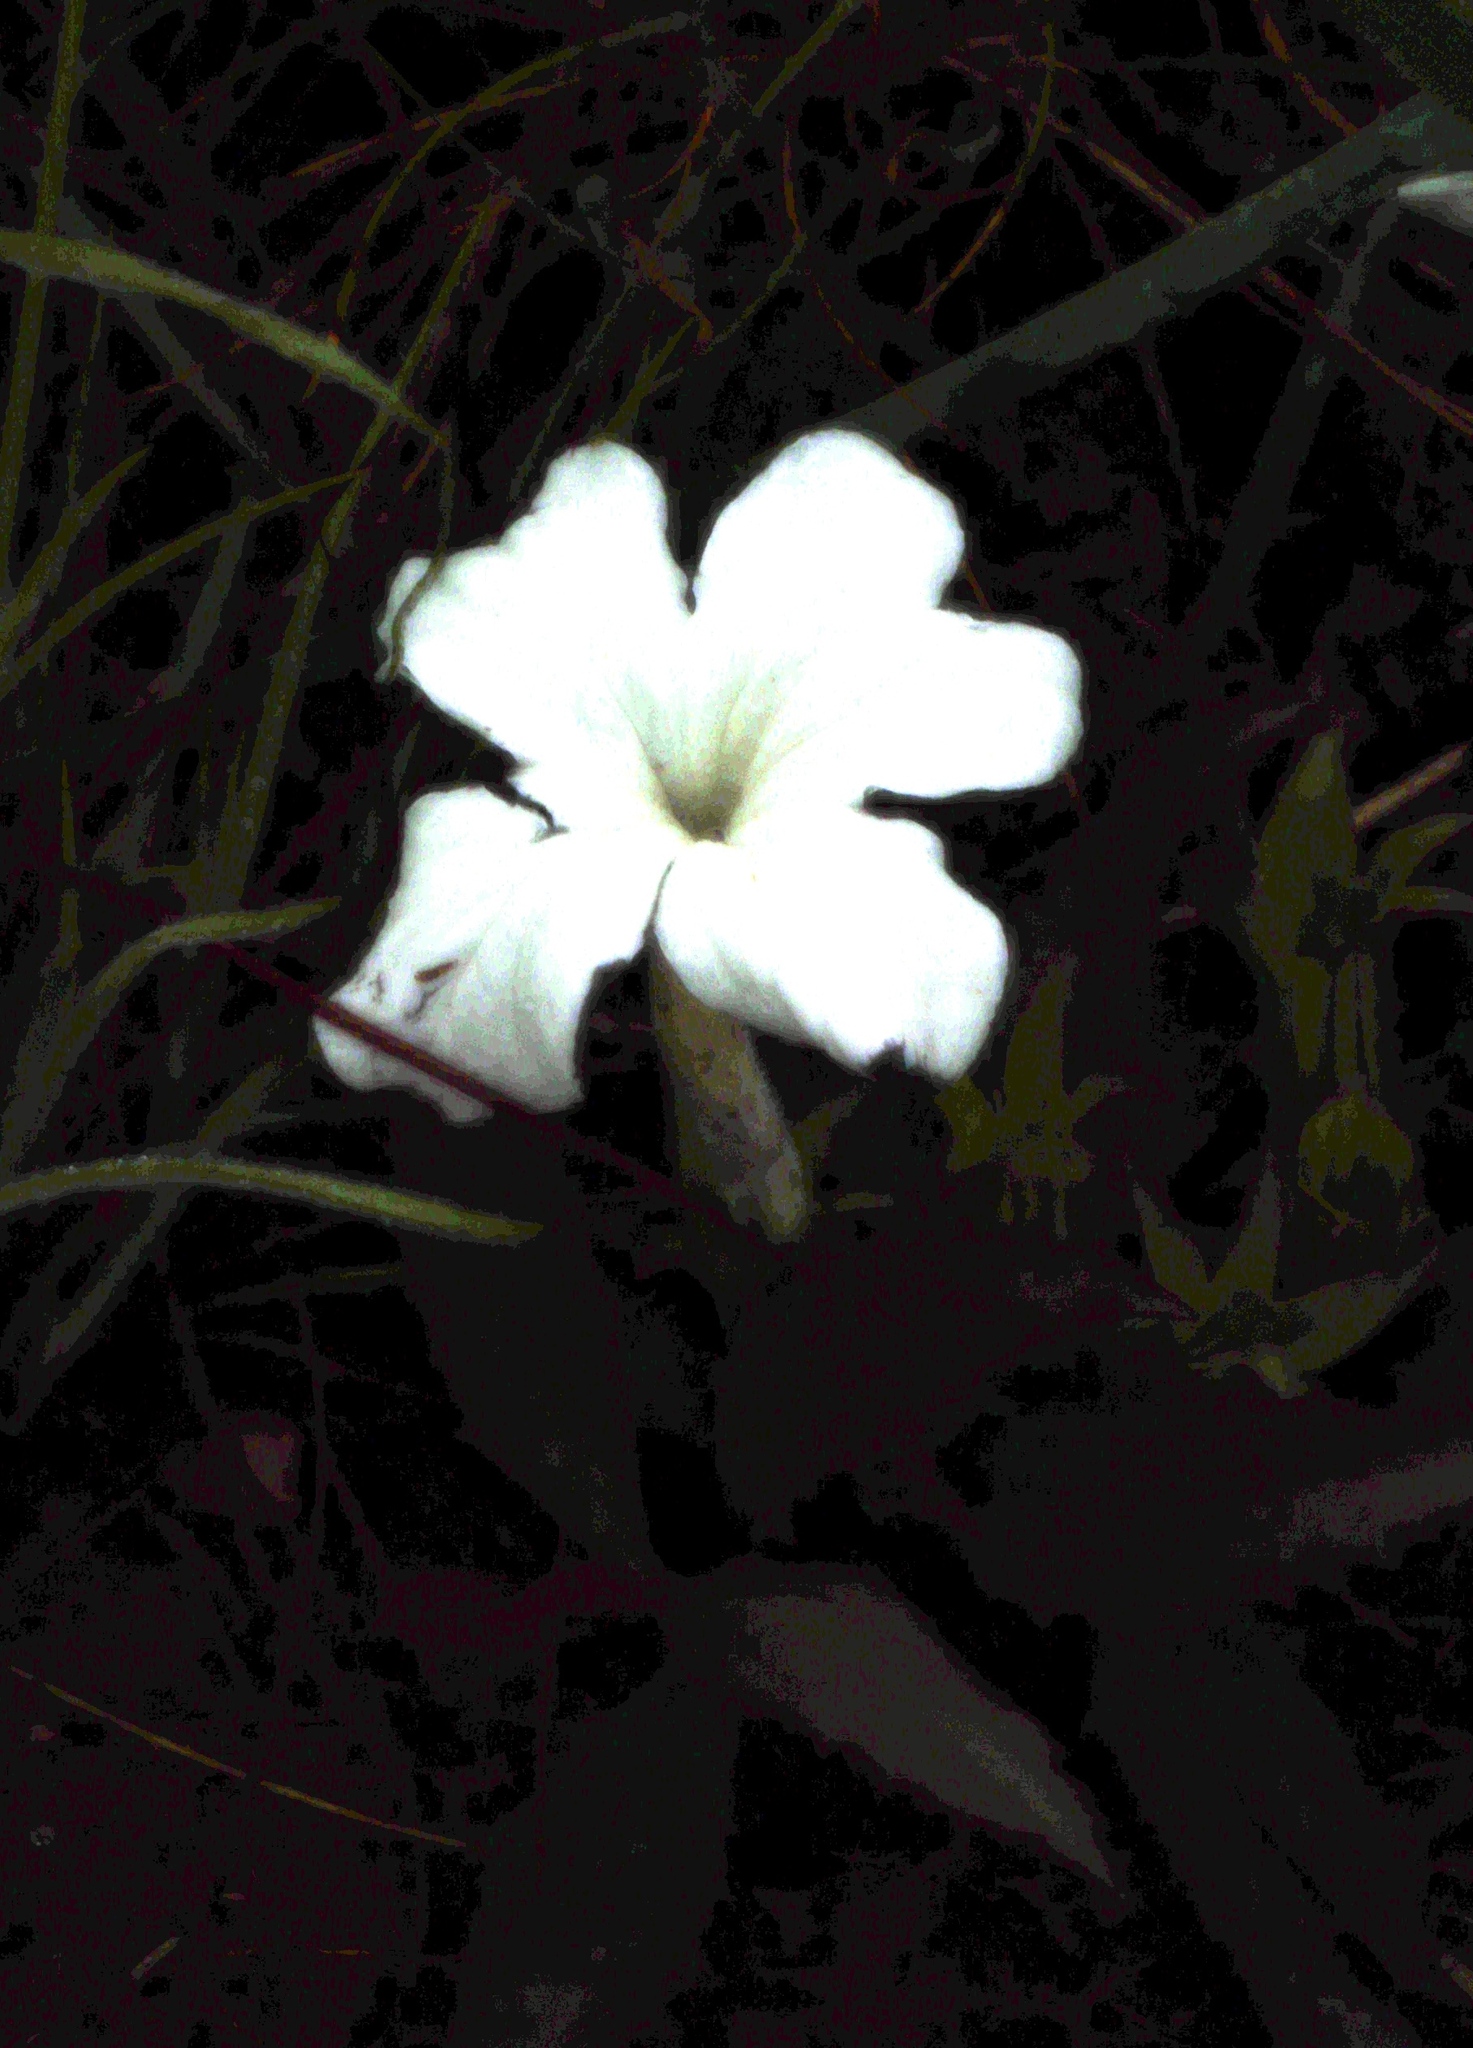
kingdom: Plantae
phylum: Tracheophyta
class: Magnoliopsida
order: Lamiales
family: Orobanchaceae
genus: Cycnium
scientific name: Cycnium adonense
